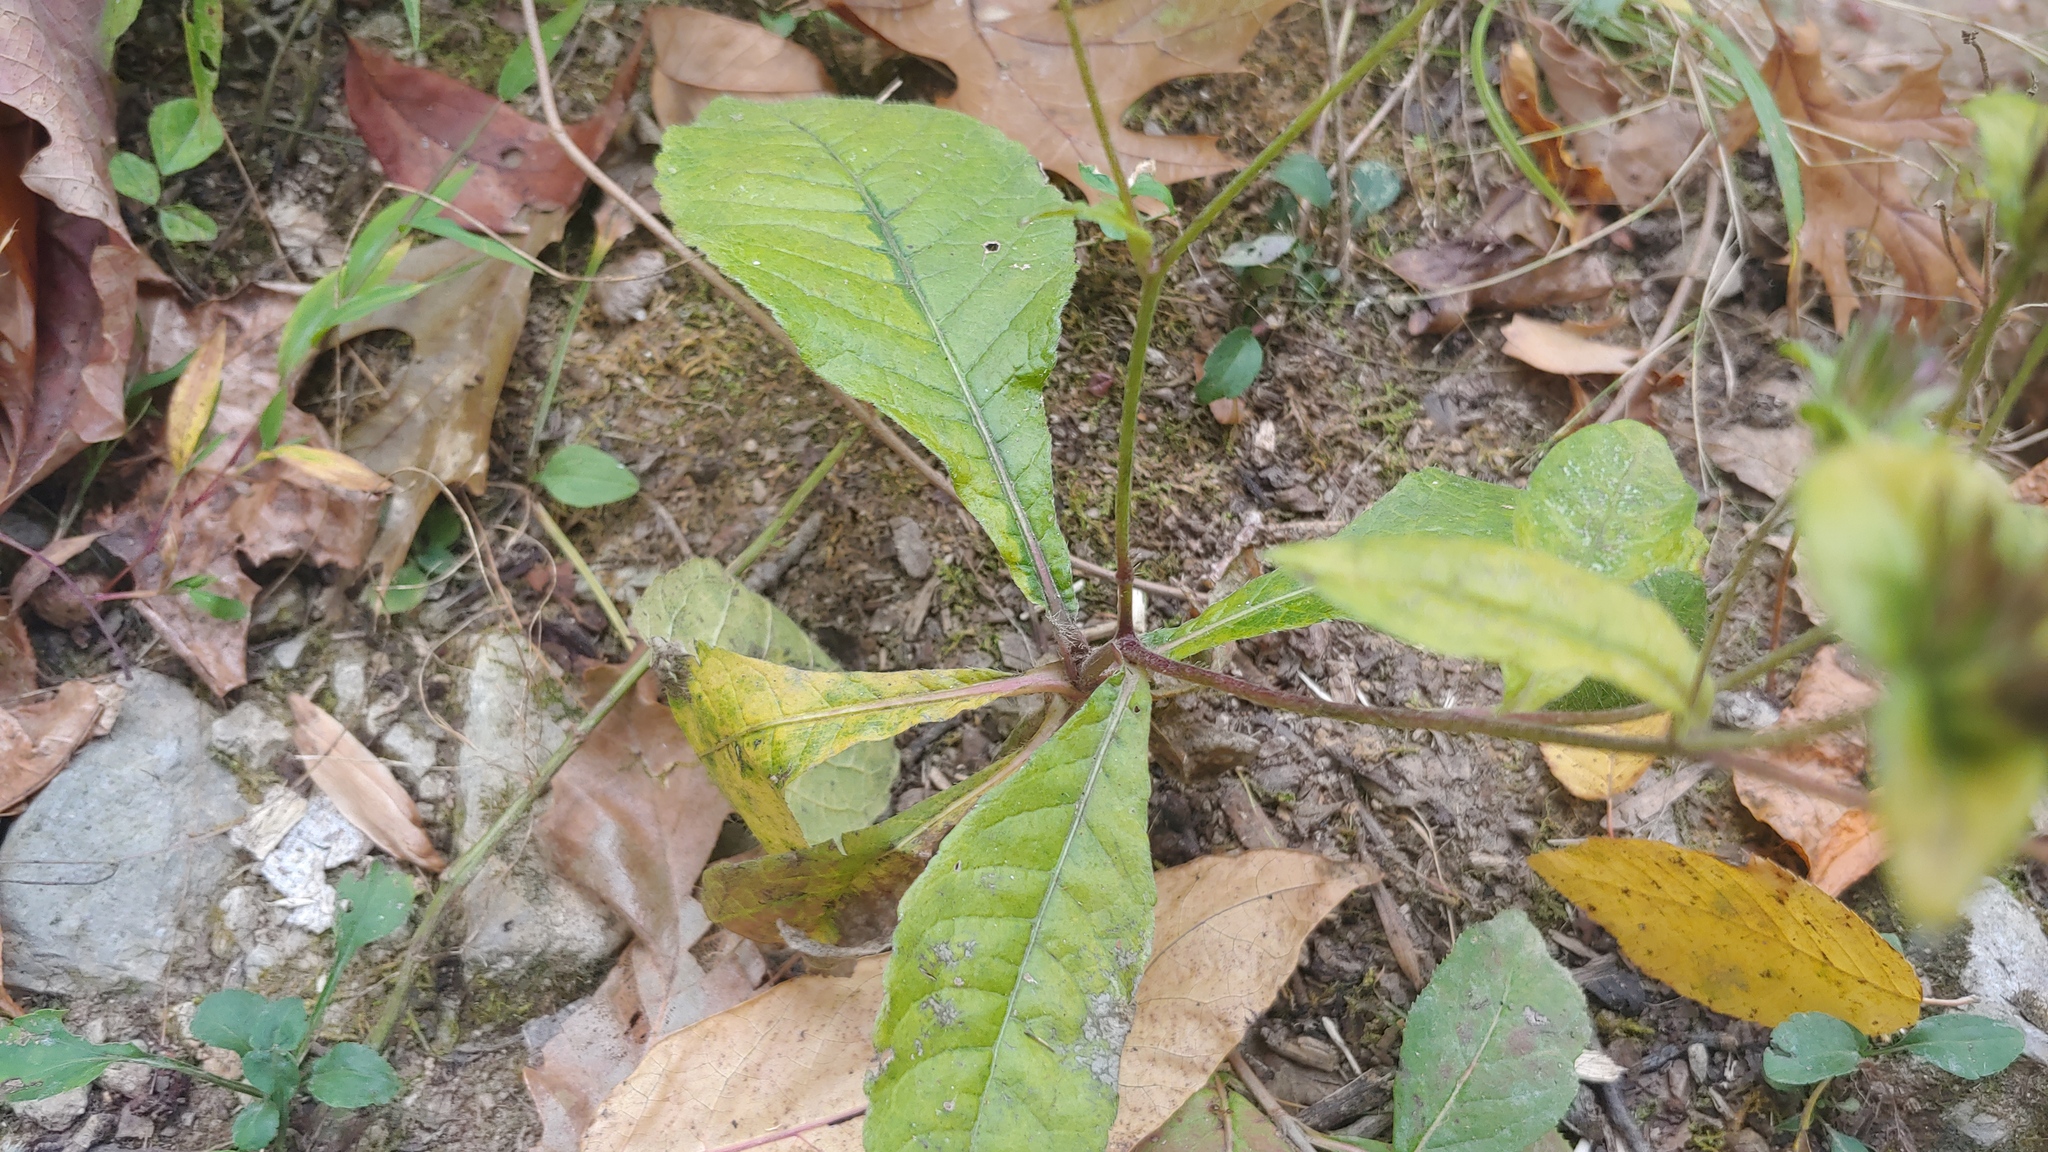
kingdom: Plantae
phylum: Tracheophyta
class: Magnoliopsida
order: Asterales
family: Asteraceae
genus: Elephantopus
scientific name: Elephantopus carolinianus
